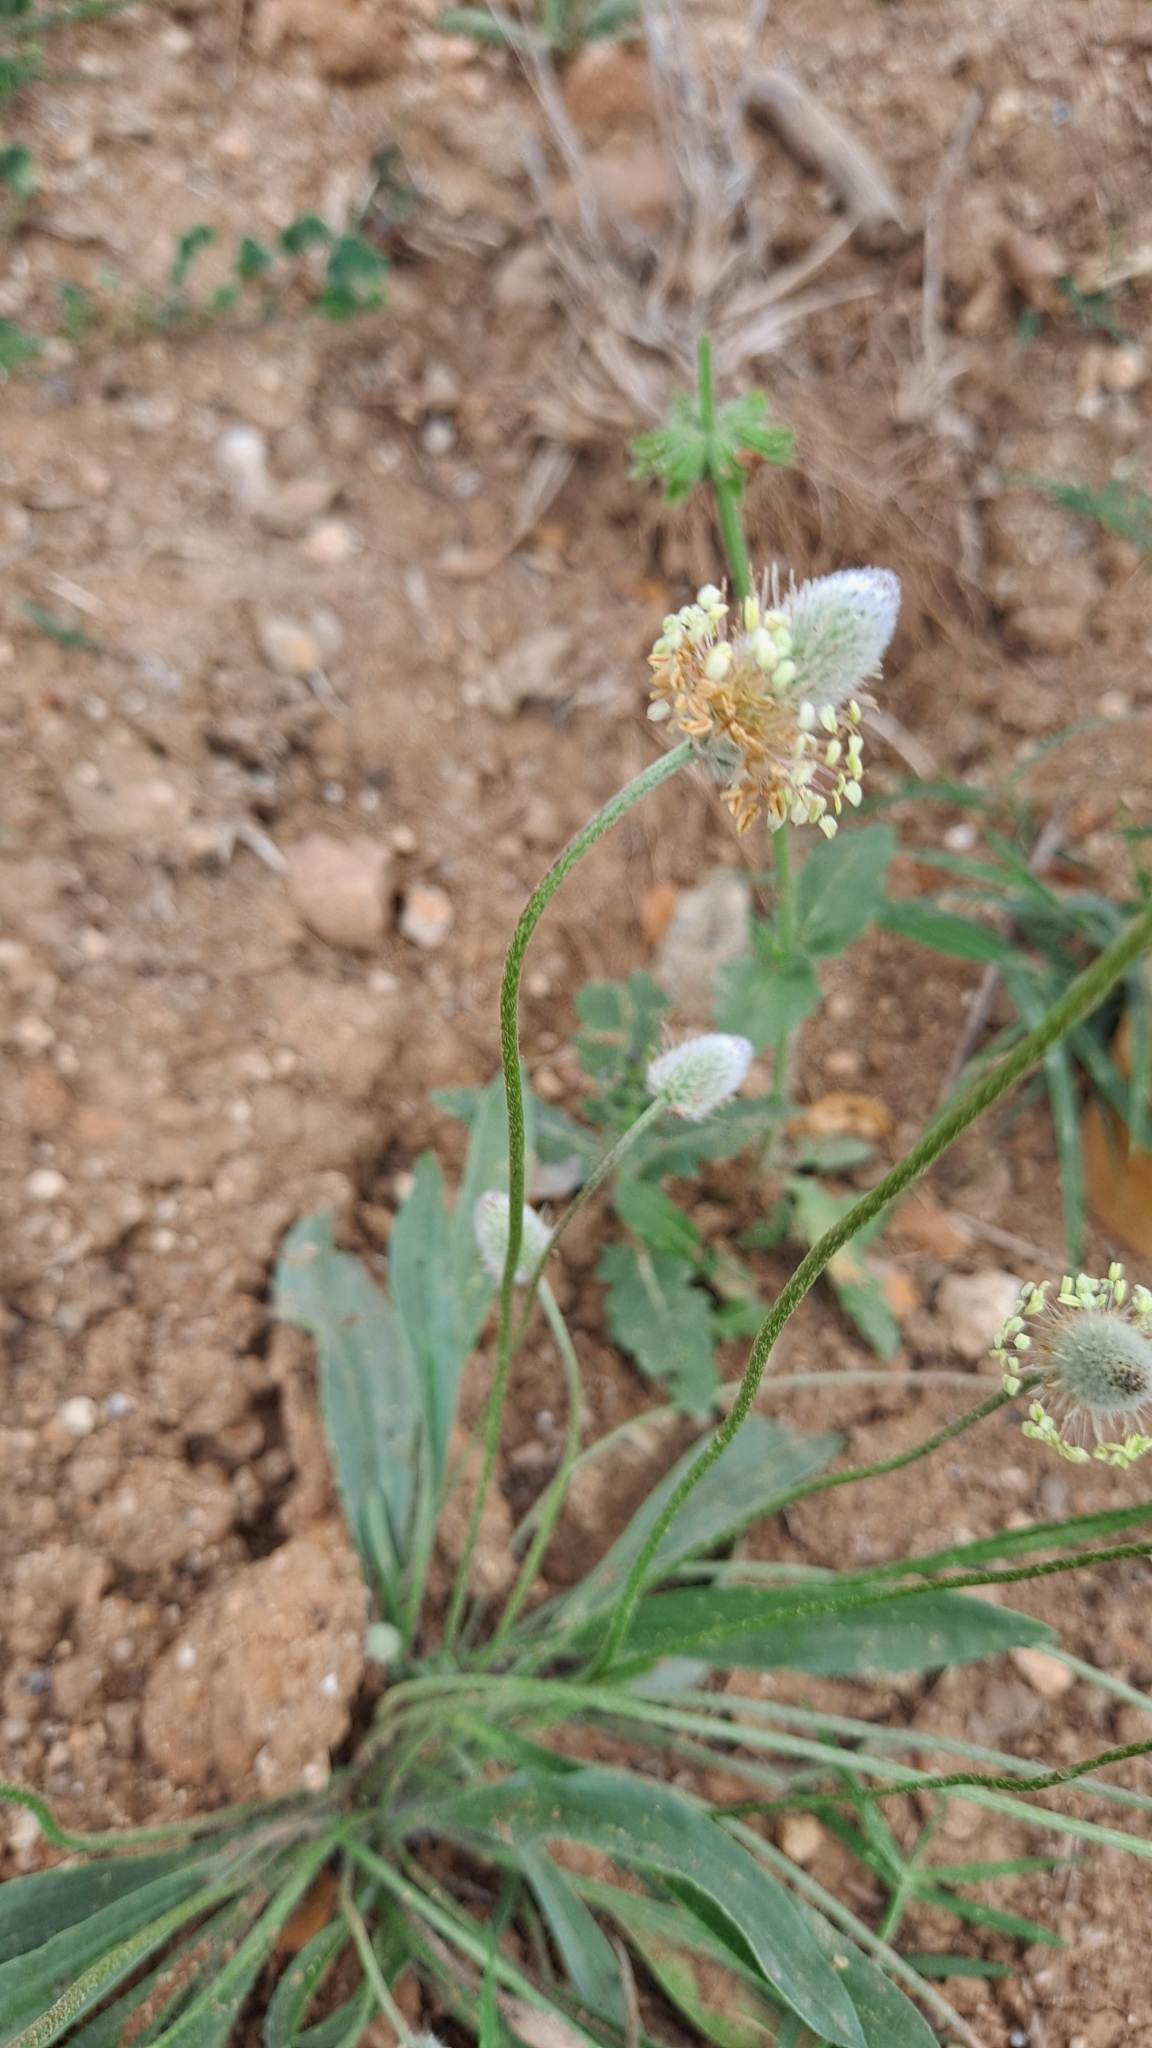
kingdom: Plantae
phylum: Tracheophyta
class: Magnoliopsida
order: Lamiales
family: Plantaginaceae
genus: Plantago
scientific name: Plantago lagopus
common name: Hare-foot plantain
